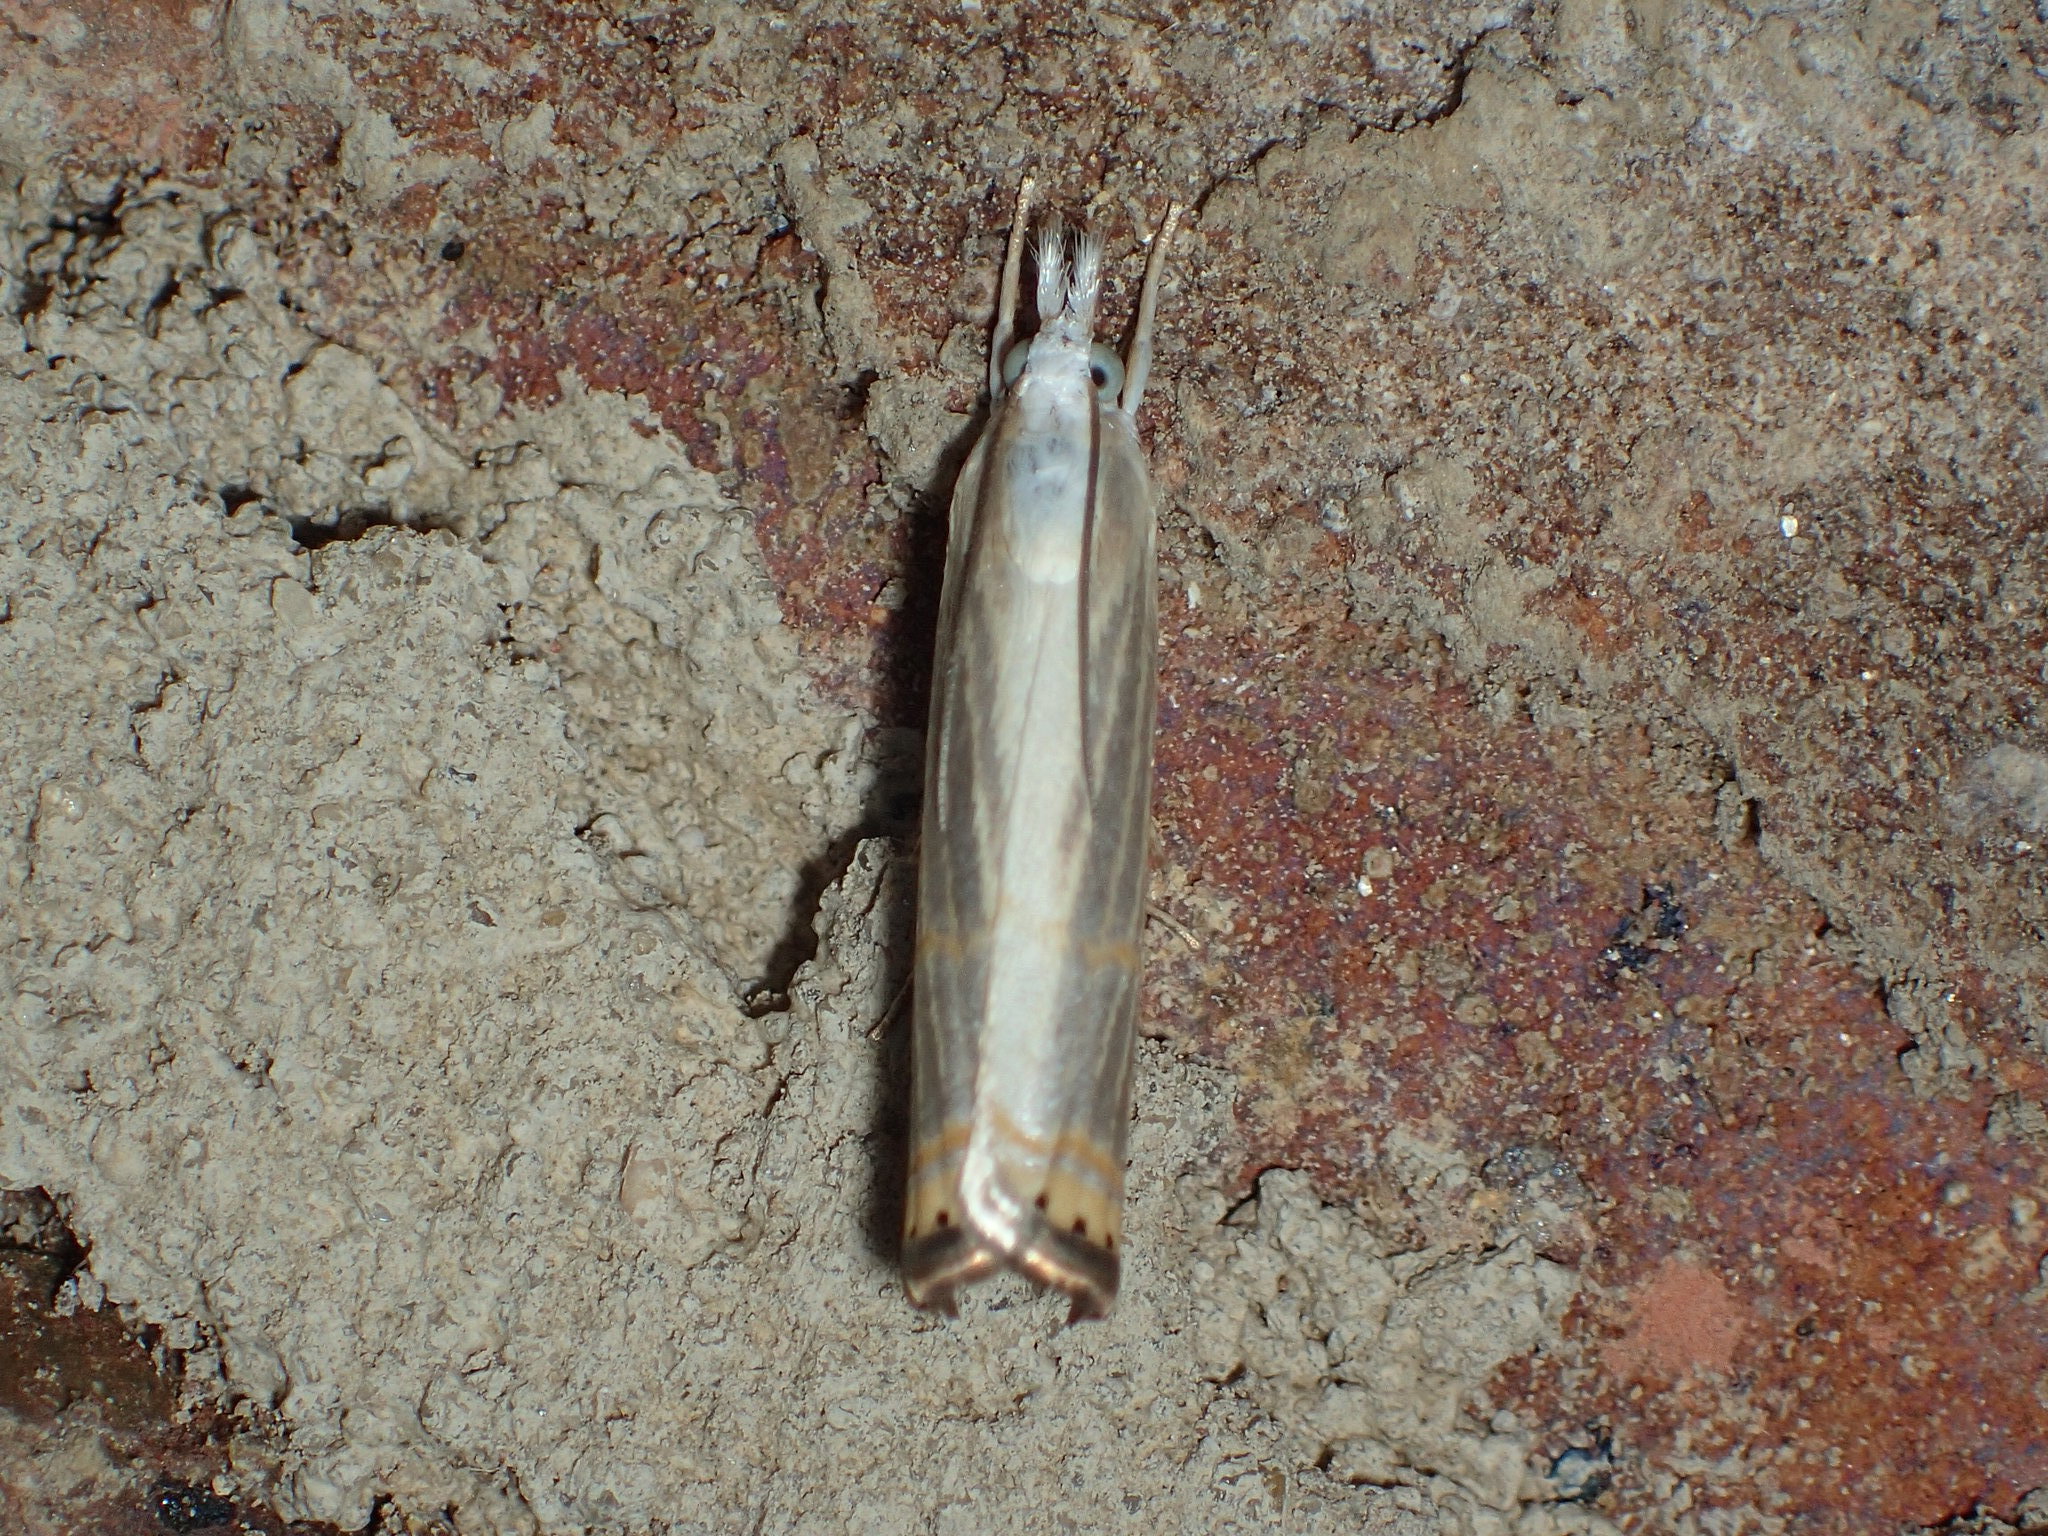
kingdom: Animalia
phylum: Arthropoda
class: Insecta
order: Lepidoptera
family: Crambidae
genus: Parapediasia
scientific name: Parapediasia decorellus
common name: Graceful grass-veneer
